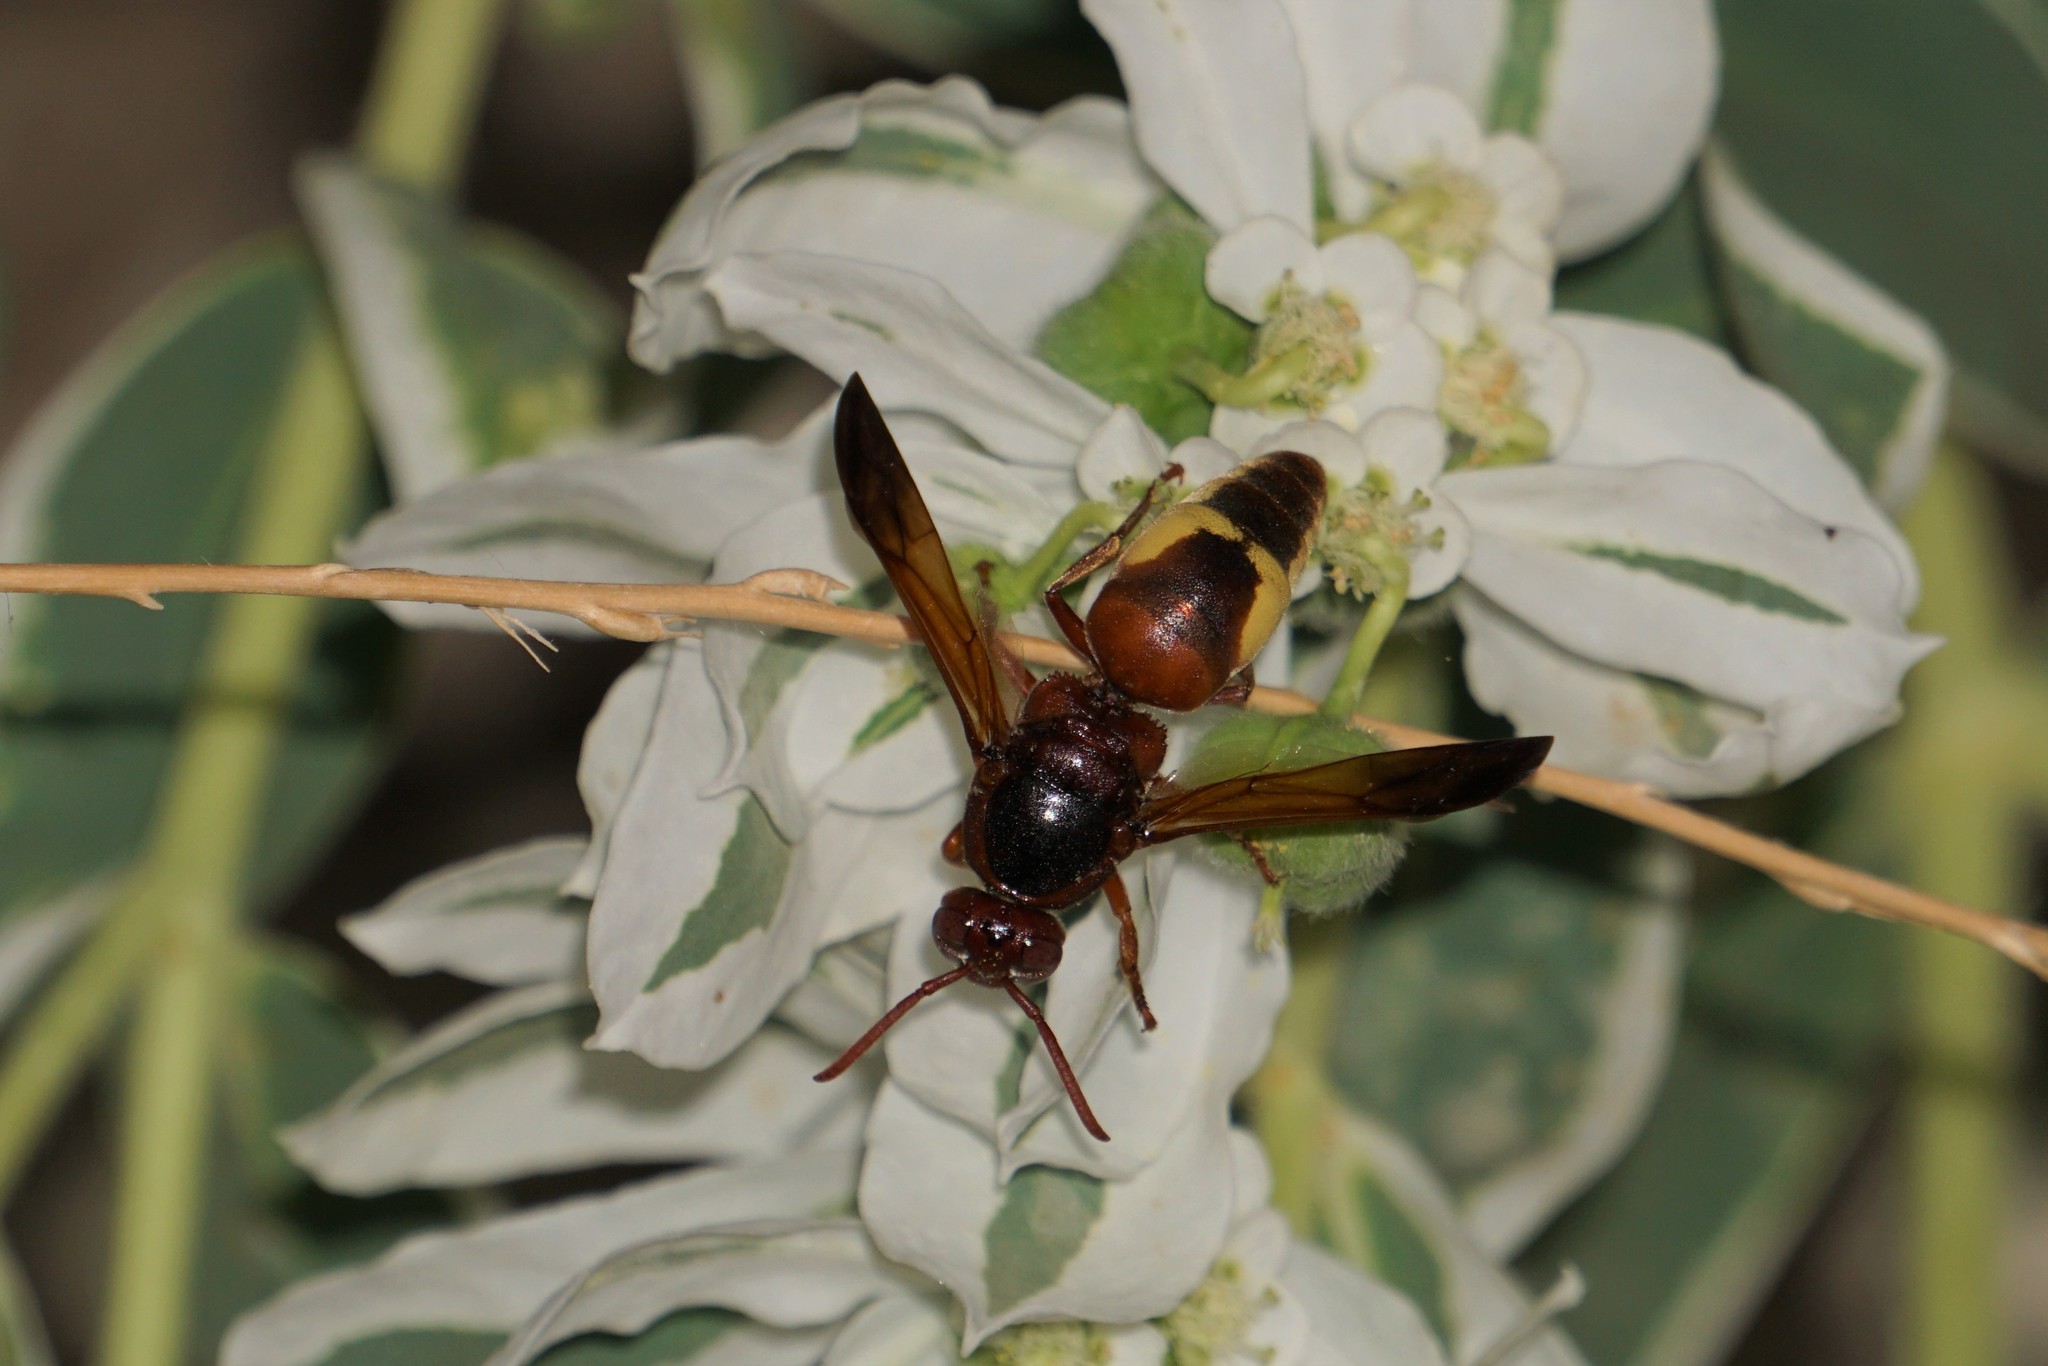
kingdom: Animalia
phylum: Arthropoda
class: Insecta
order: Hymenoptera
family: Eumenidae
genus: Rhynchium
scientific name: Rhynchium oculatum
